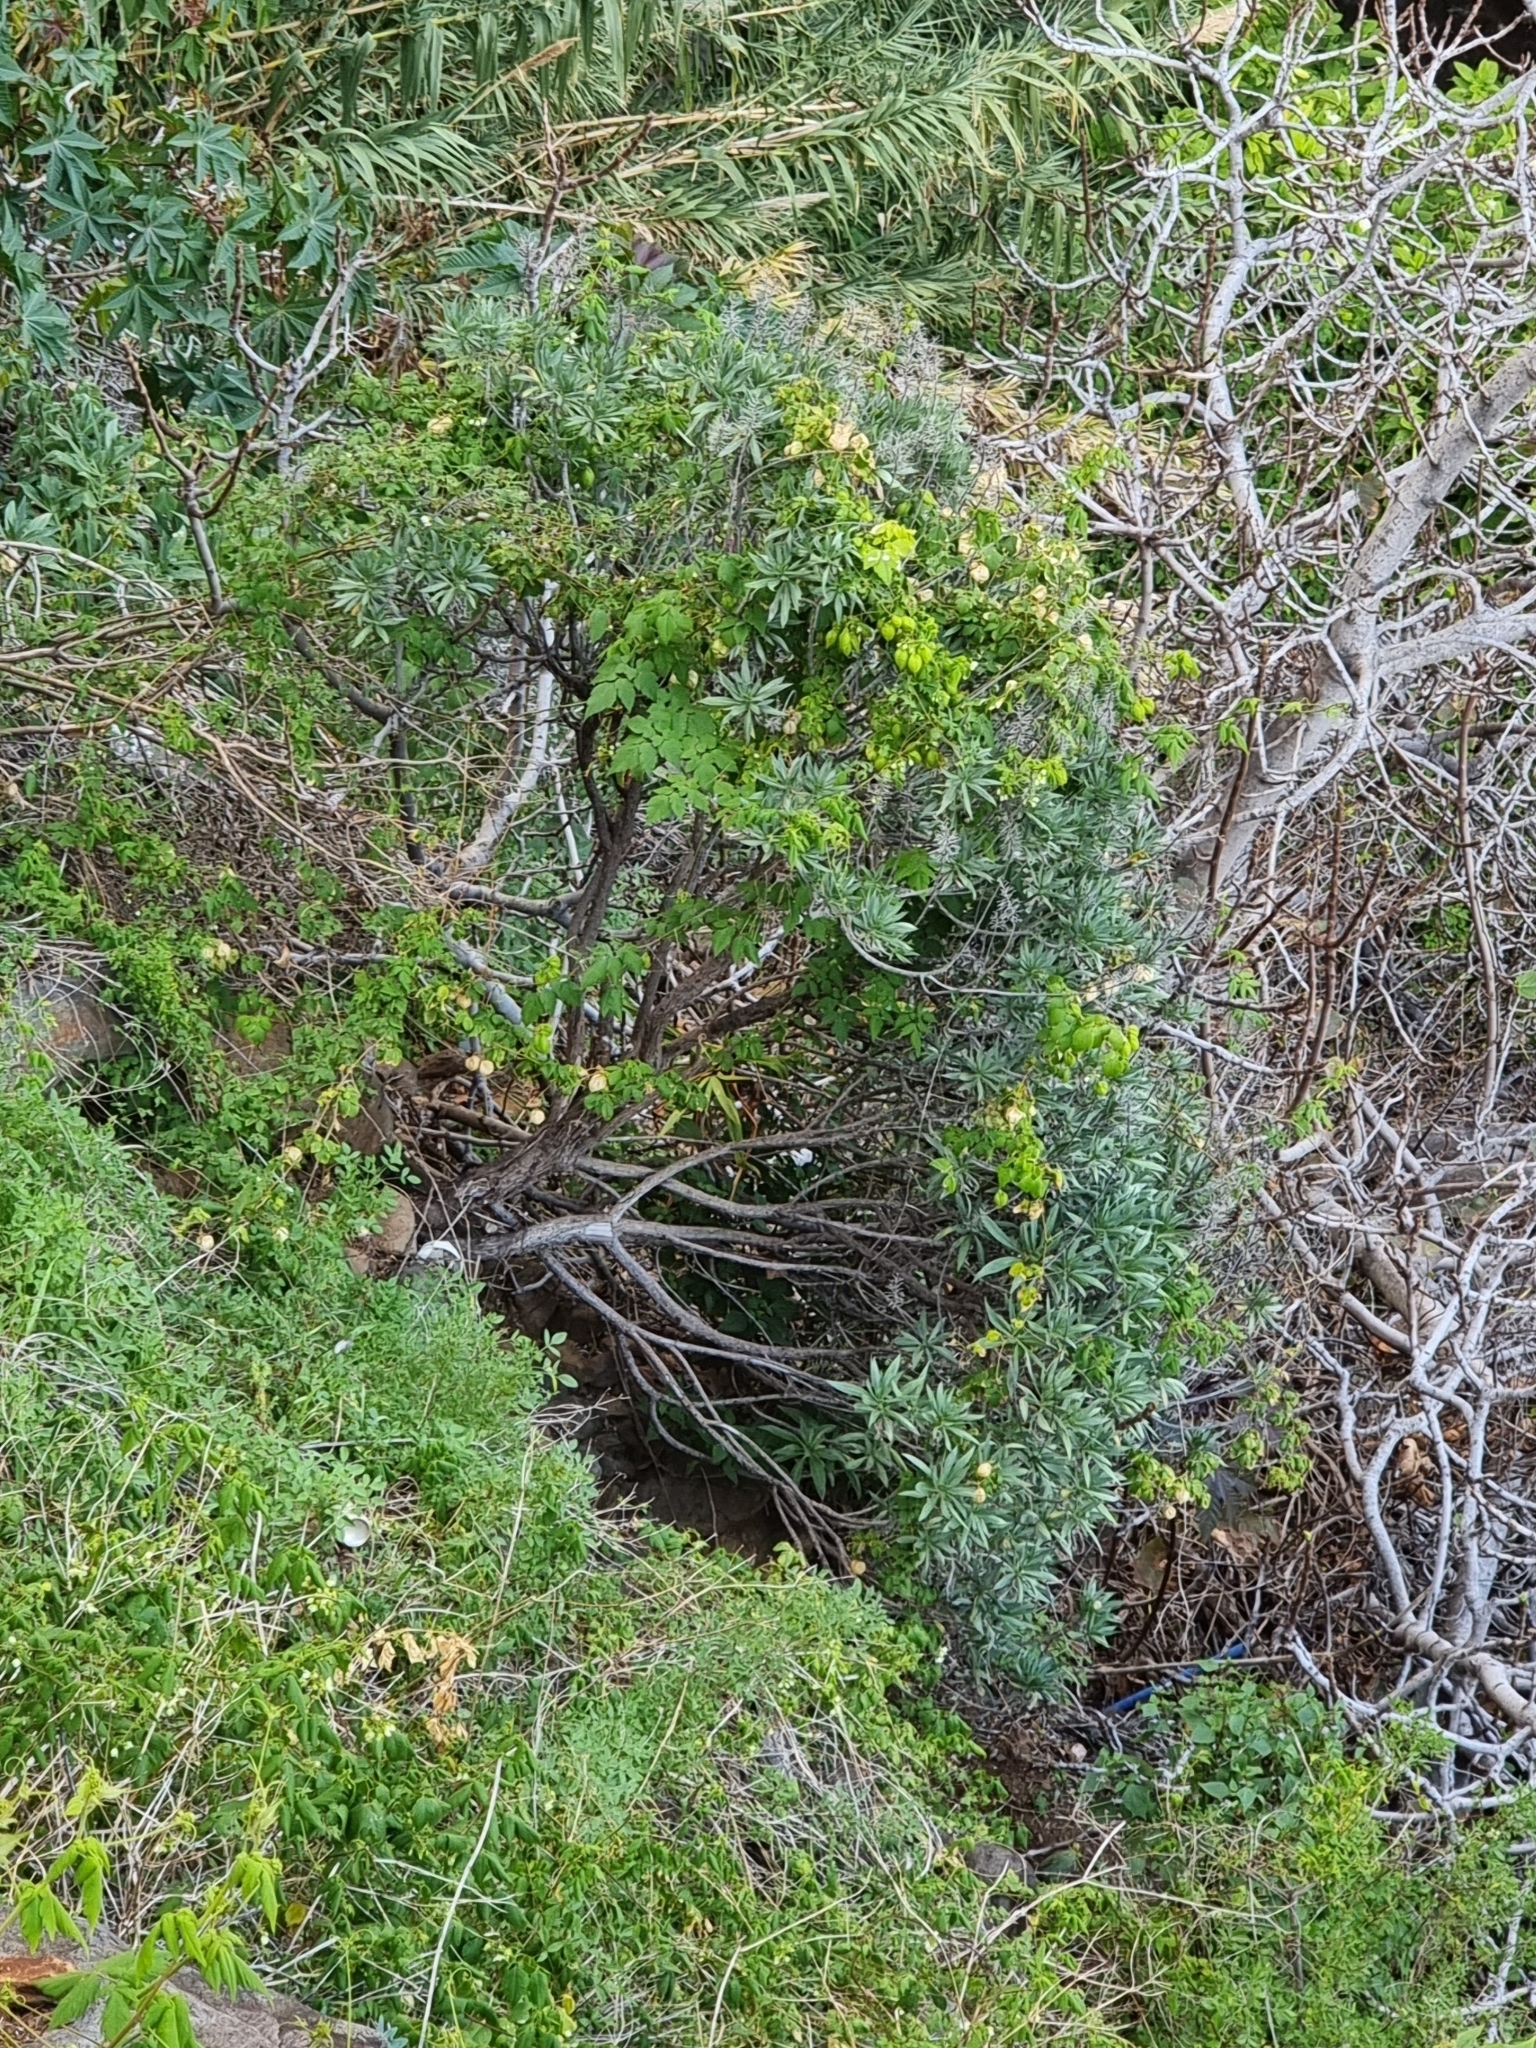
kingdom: Plantae
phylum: Tracheophyta
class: Magnoliopsida
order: Boraginales
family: Boraginaceae
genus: Echium
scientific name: Echium nervosum
